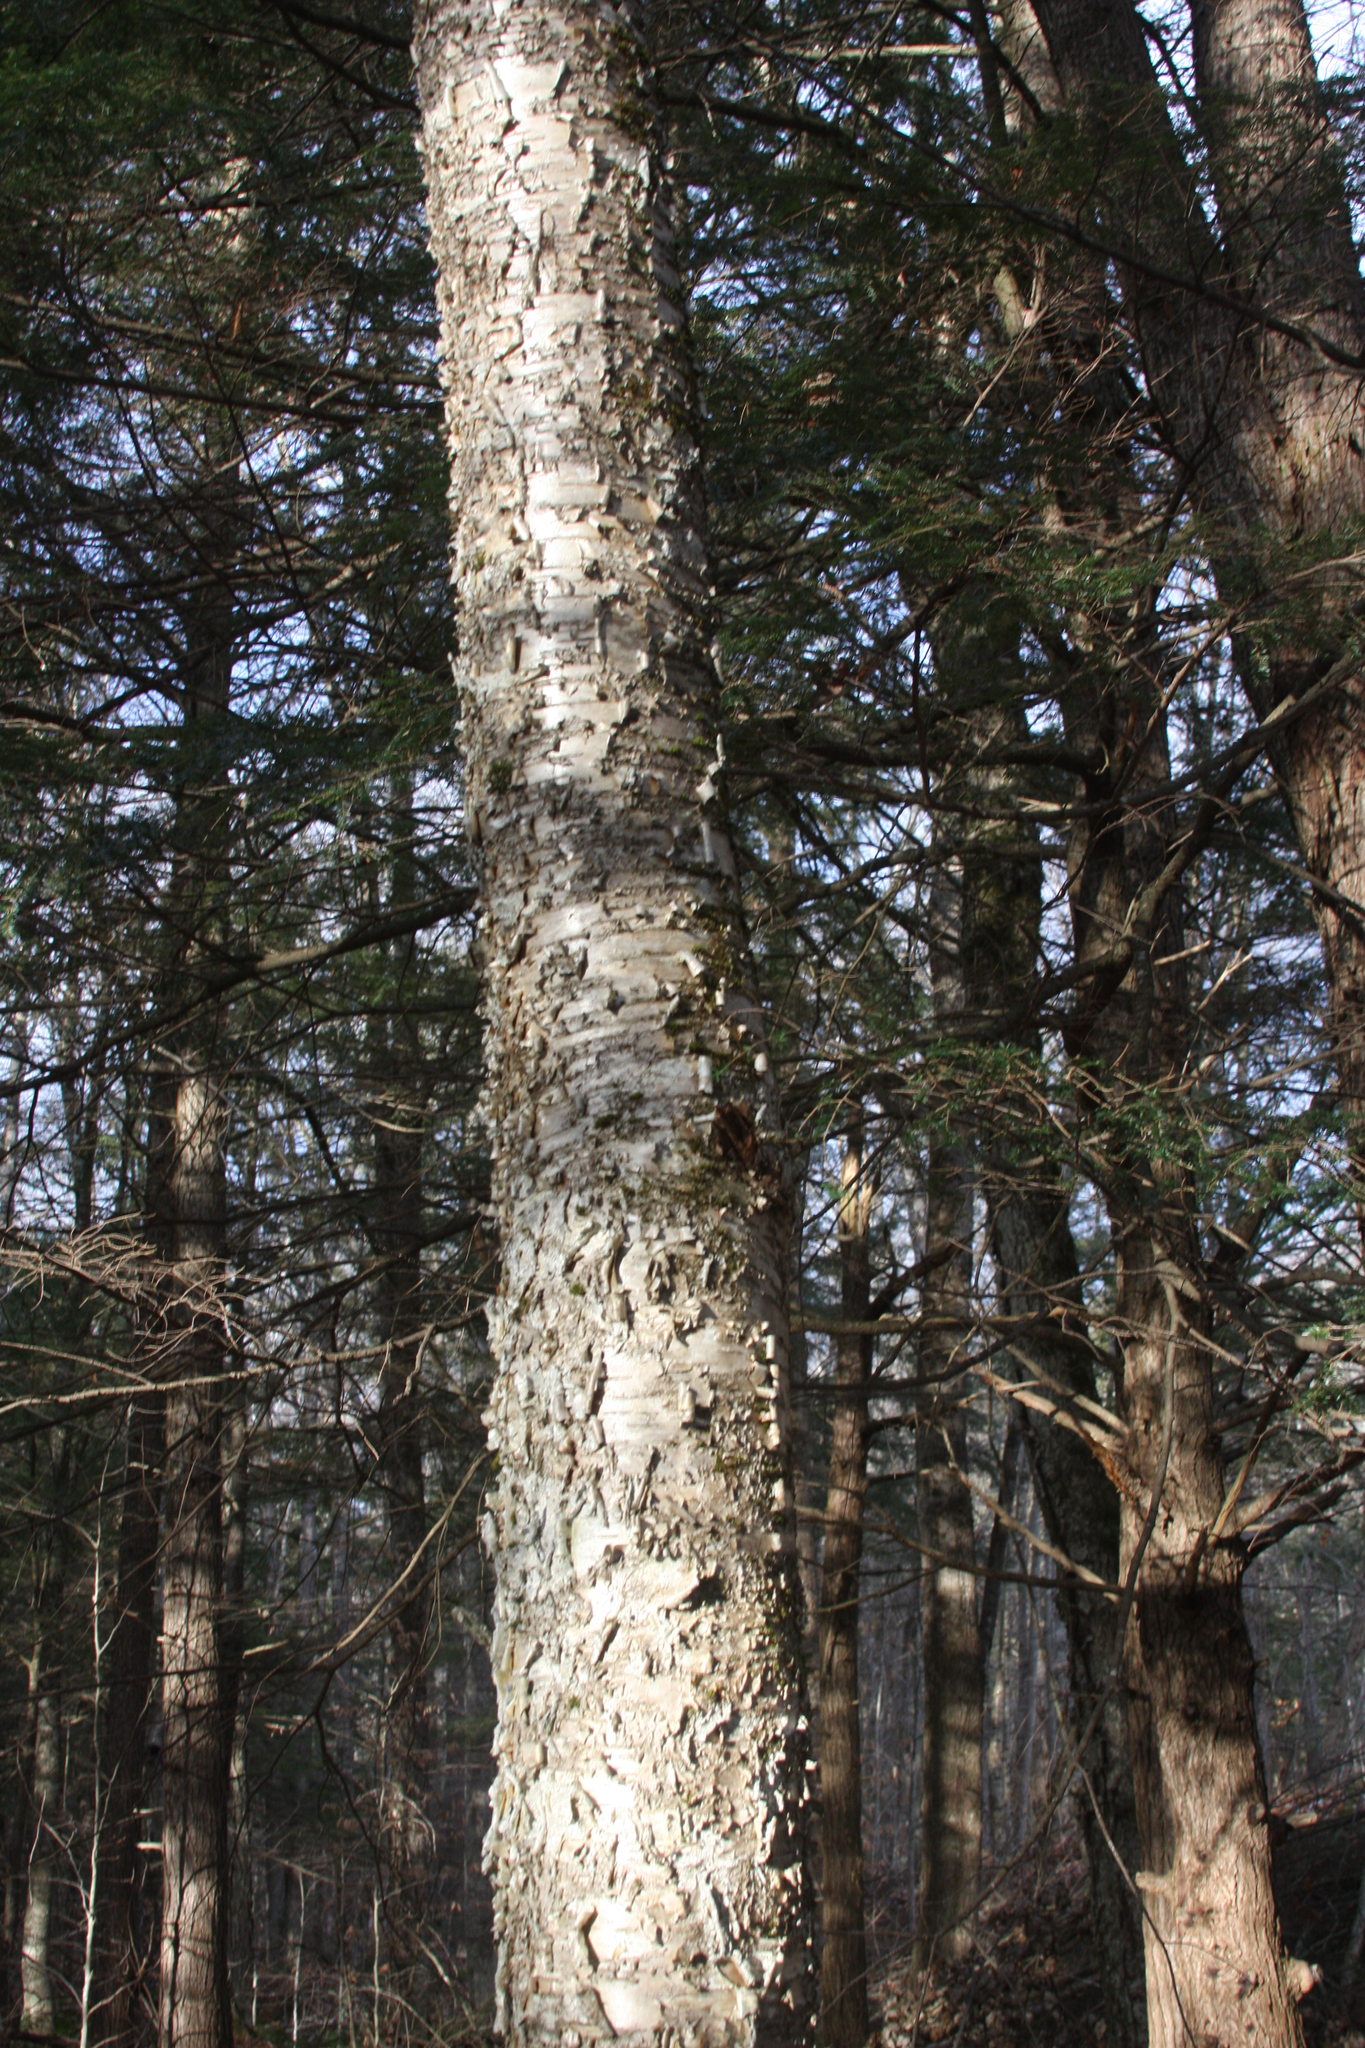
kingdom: Plantae
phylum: Tracheophyta
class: Magnoliopsida
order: Fagales
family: Betulaceae
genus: Betula
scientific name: Betula alleghaniensis
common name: Yellow birch
